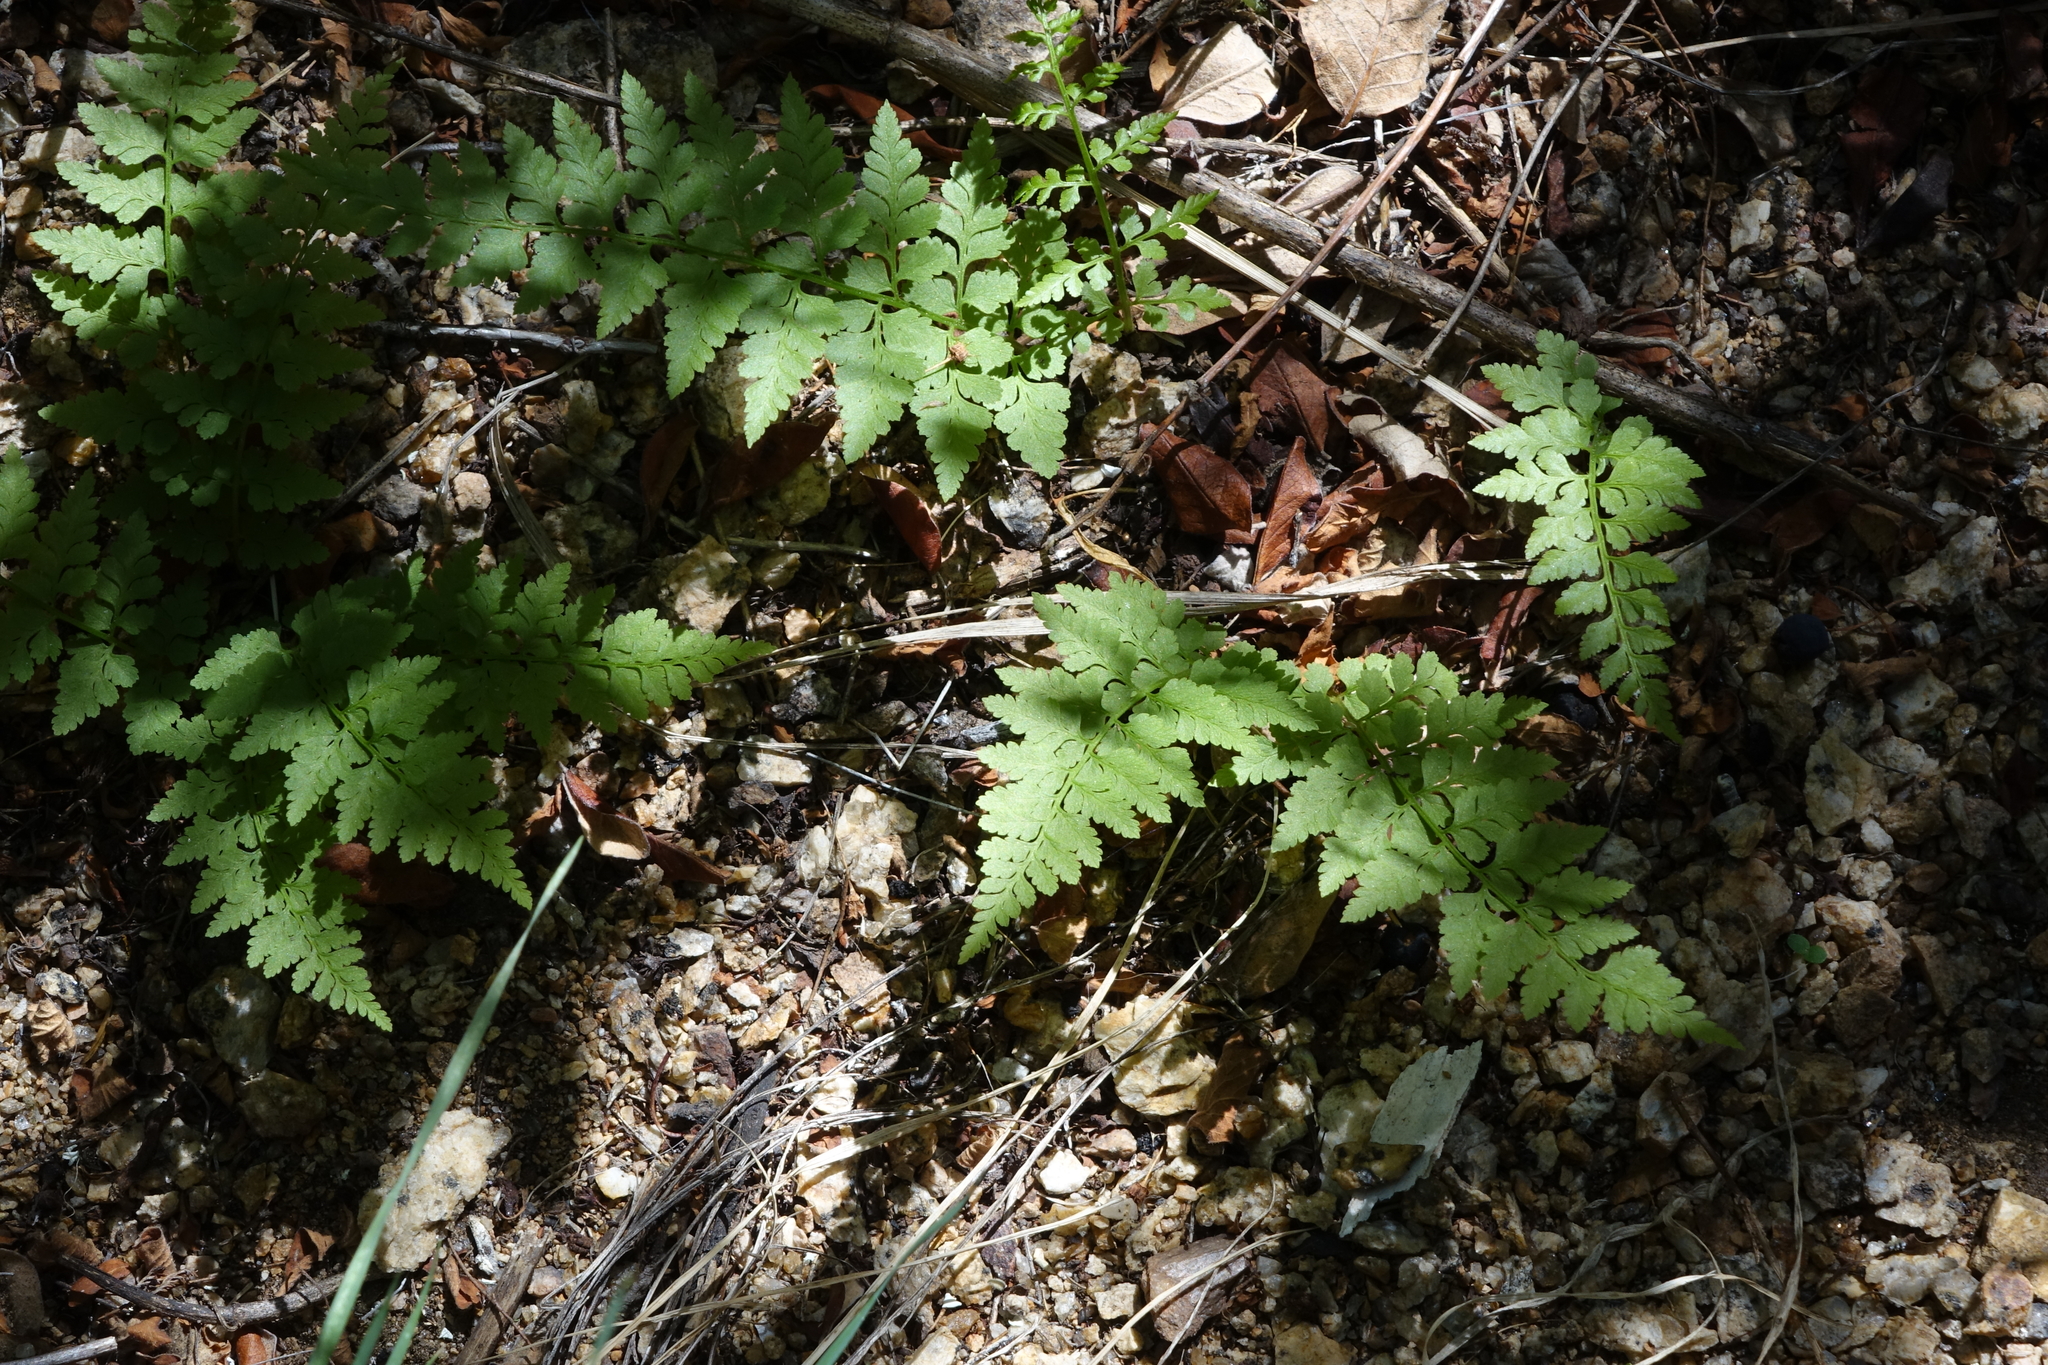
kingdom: Plantae
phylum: Tracheophyta
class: Polypodiopsida
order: Polypodiales
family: Cystopteridaceae
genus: Cystopteris
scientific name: Cystopteris fragilis
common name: Brittle bladder fern
